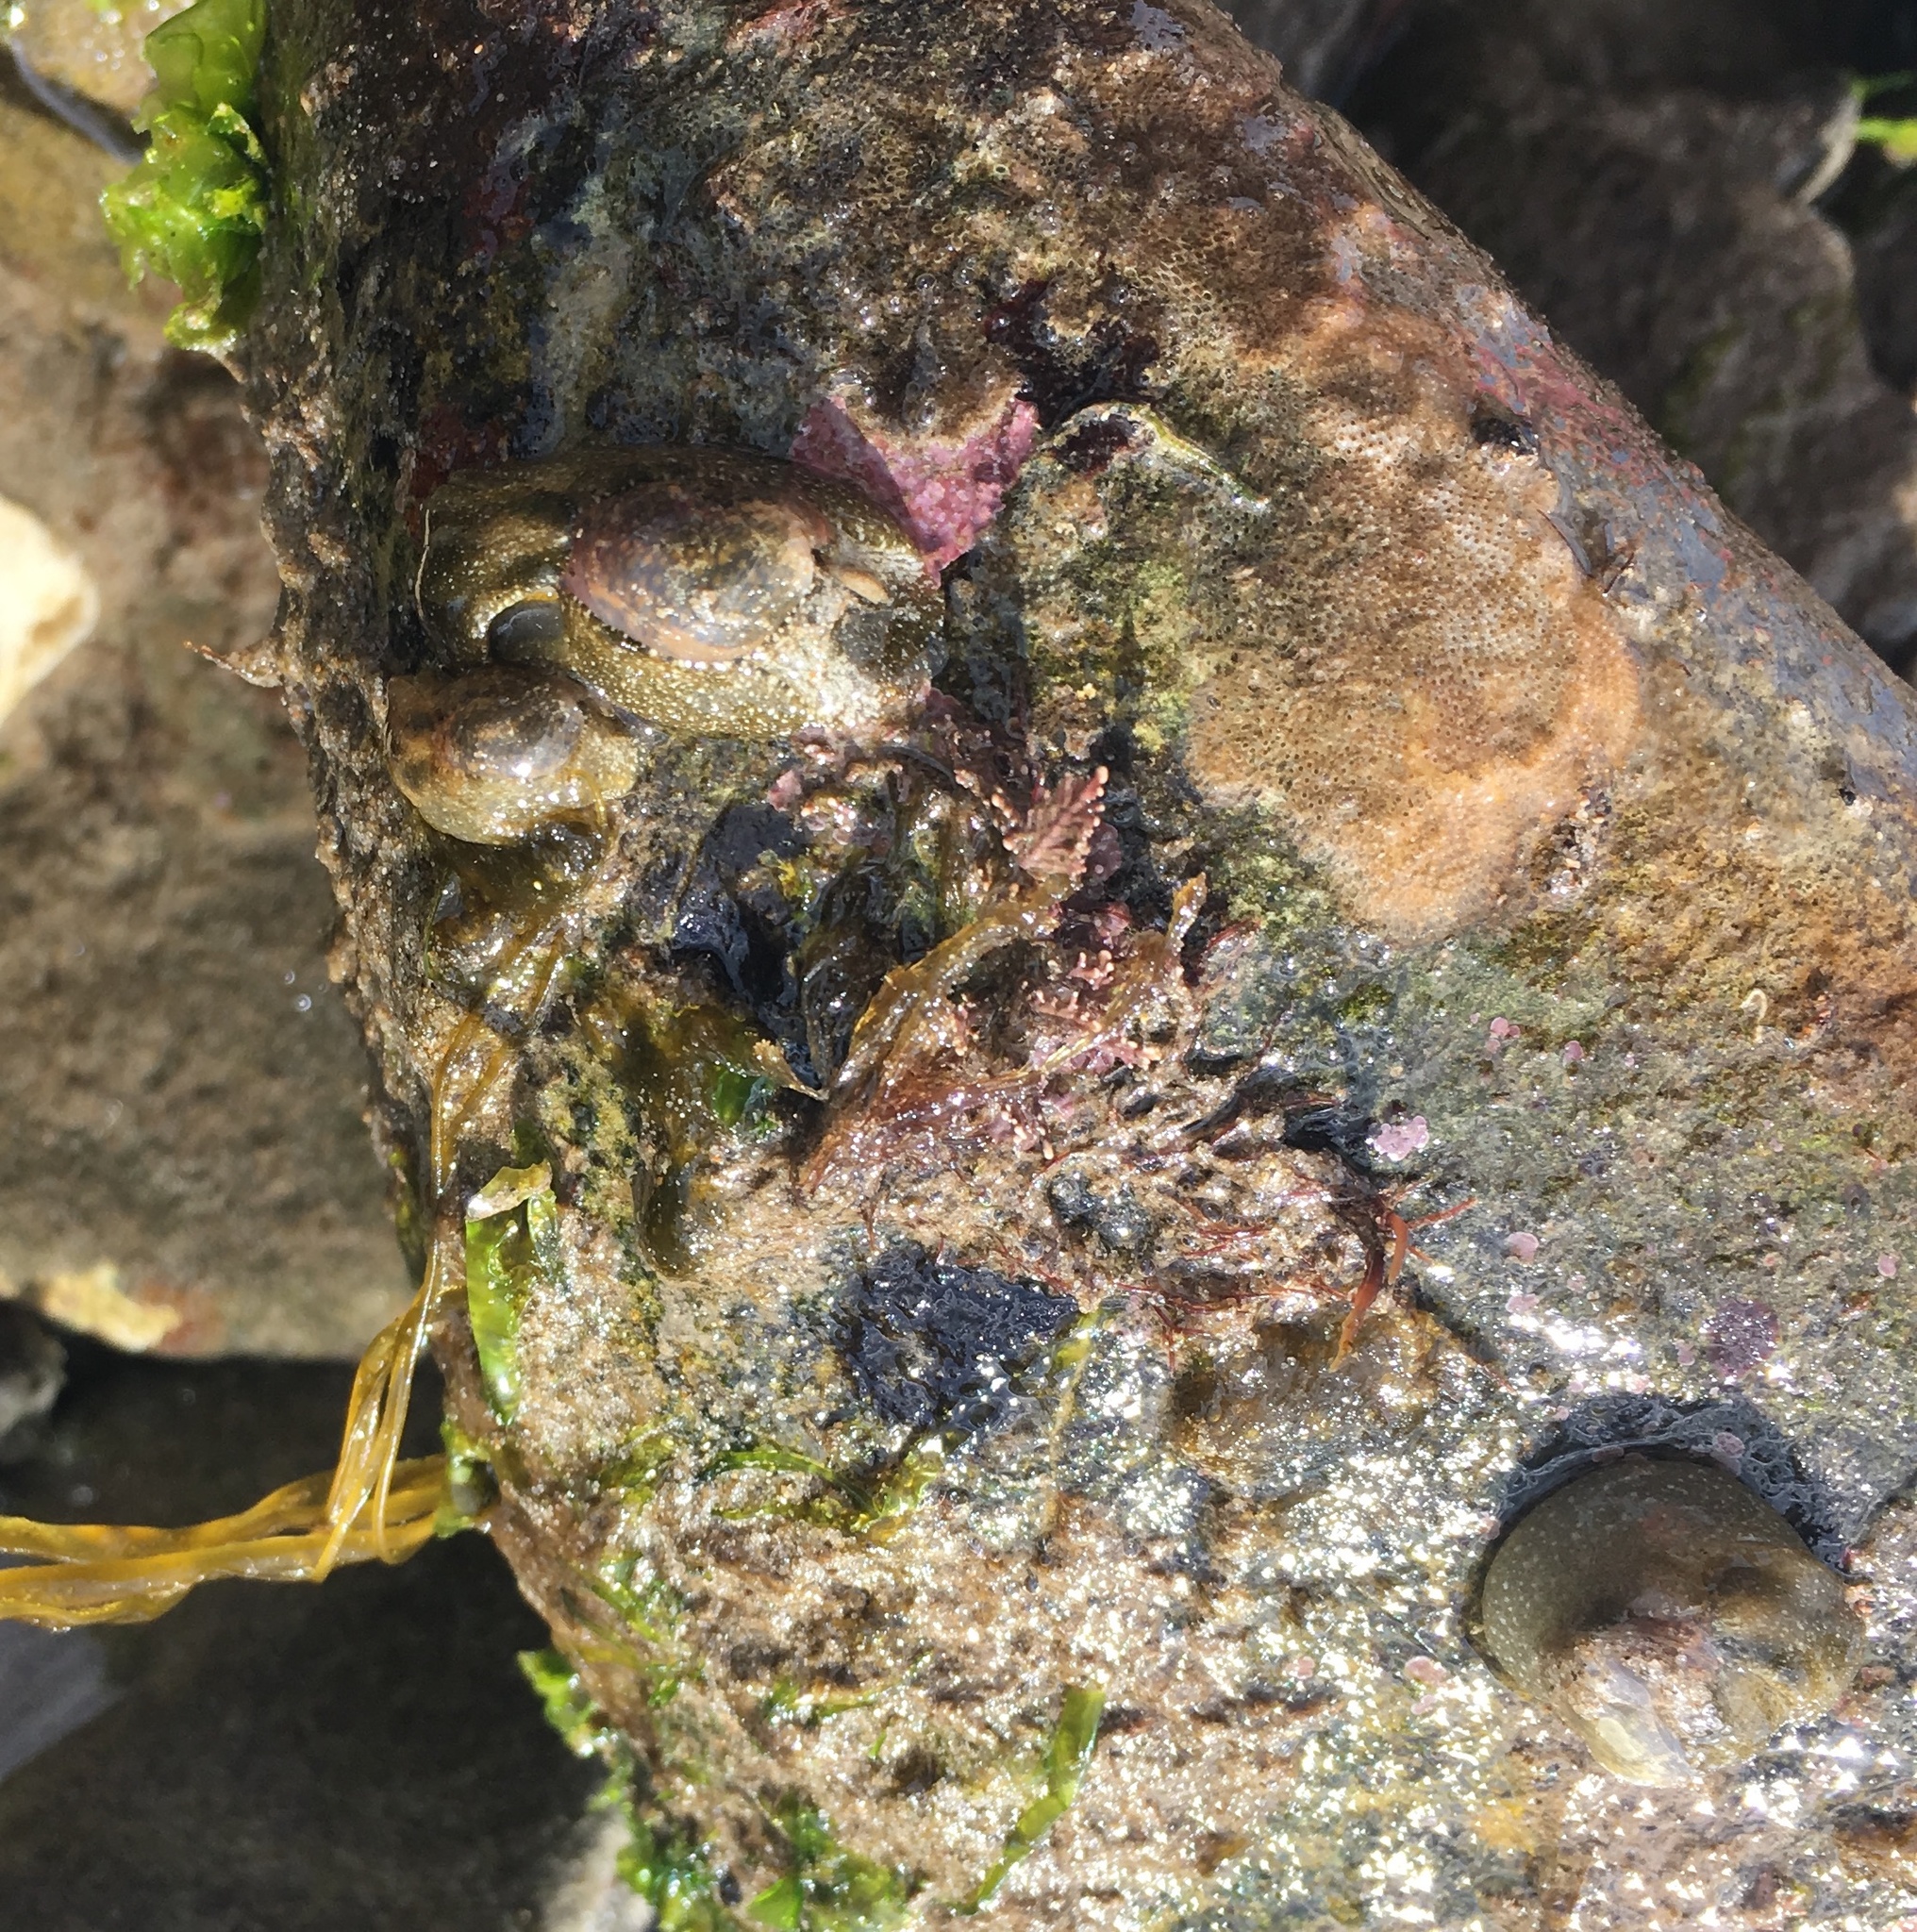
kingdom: Animalia
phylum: Mollusca
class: Gastropoda
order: Cephalaspidea
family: Haminoeidae
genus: Haminoea
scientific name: Haminoea virescens
